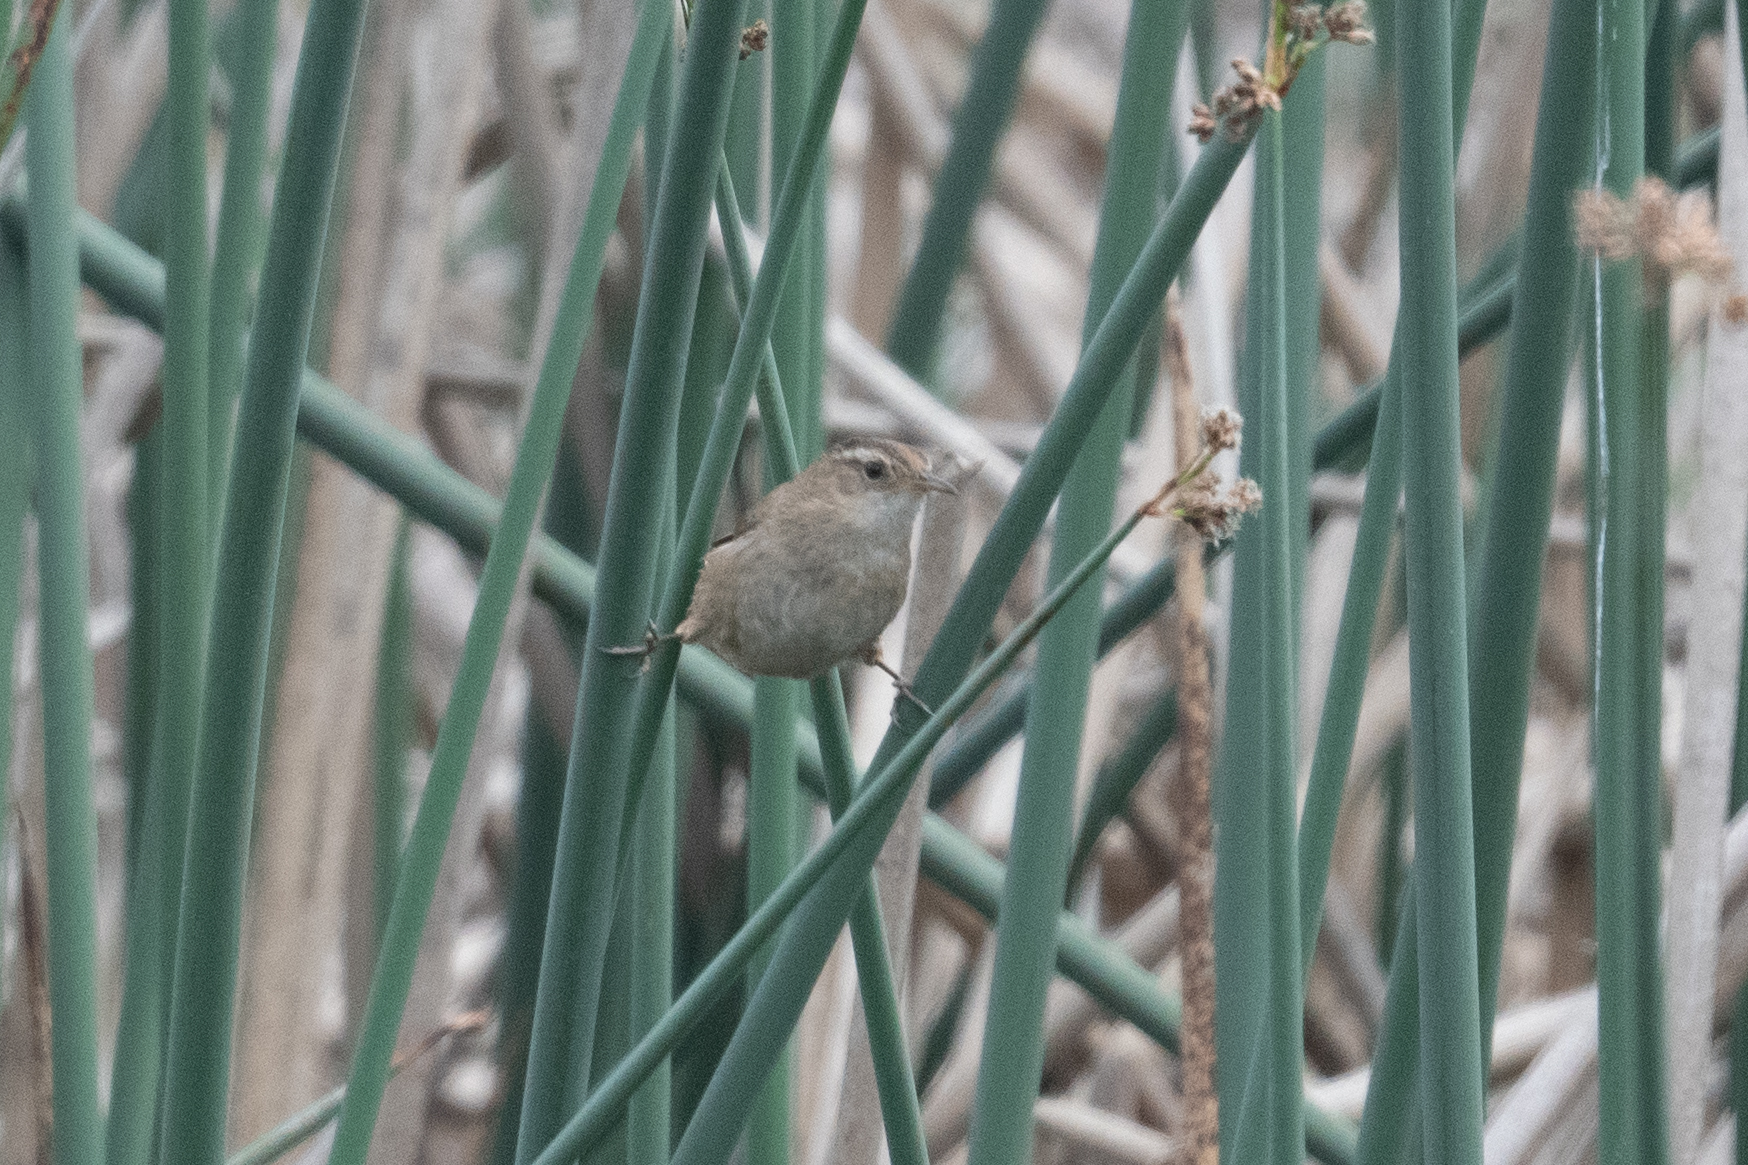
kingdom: Animalia
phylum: Chordata
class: Aves
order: Passeriformes
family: Troglodytidae
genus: Cistothorus
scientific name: Cistothorus palustris
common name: Marsh wren
